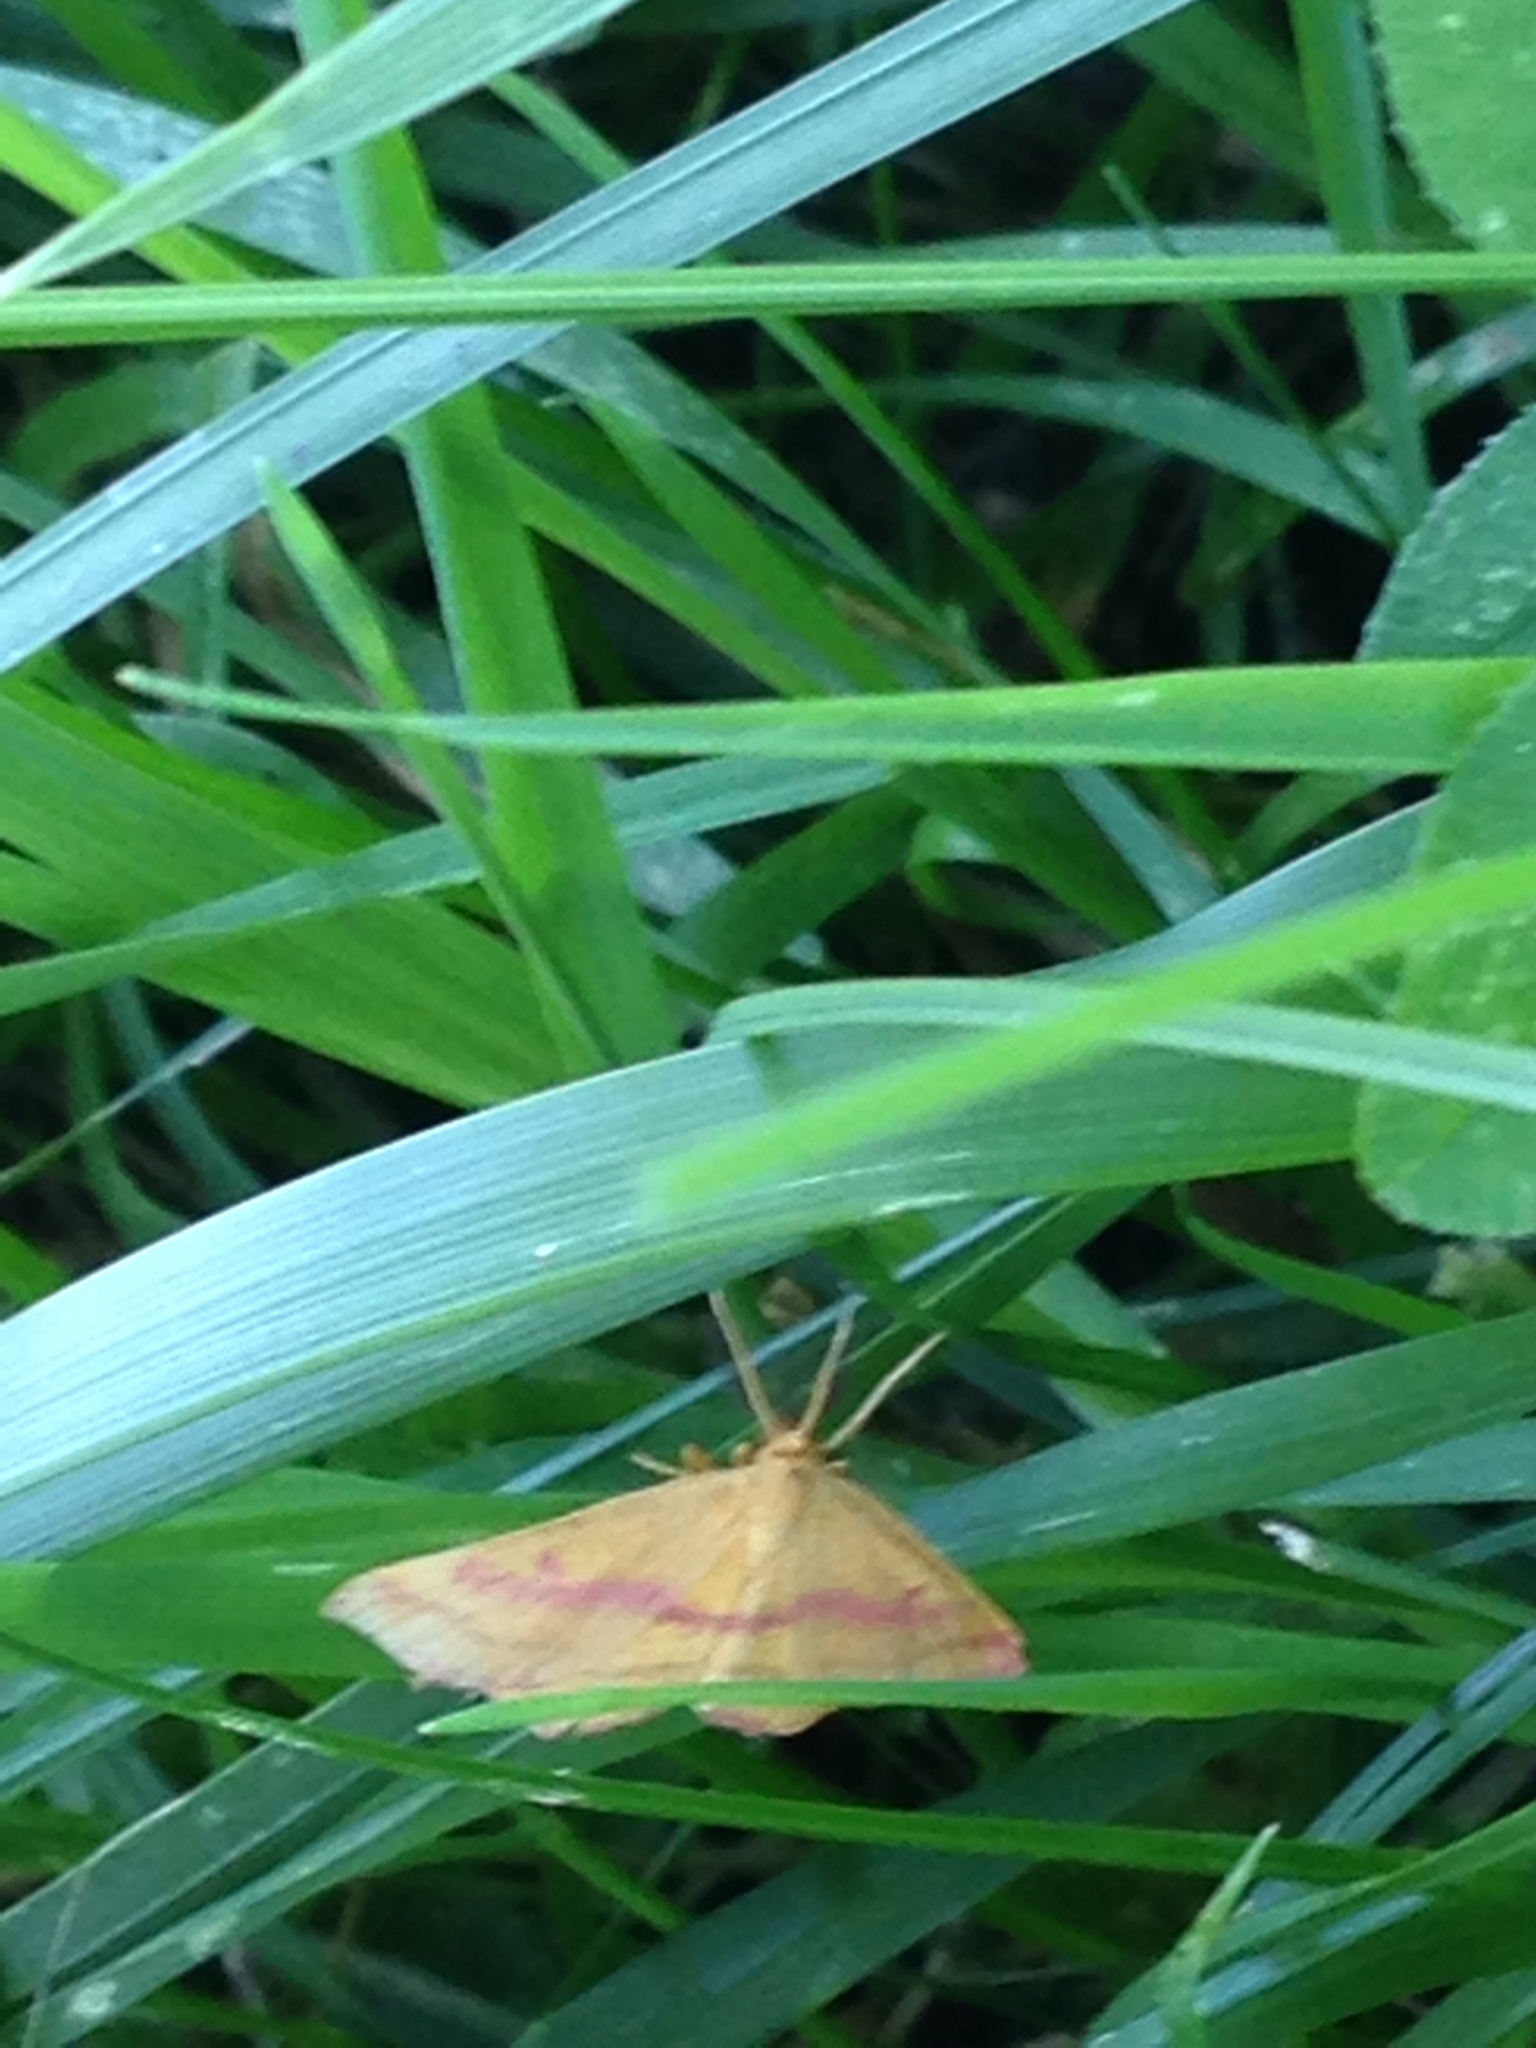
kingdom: Animalia
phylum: Arthropoda
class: Insecta
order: Lepidoptera
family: Geometridae
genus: Haematopis
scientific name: Haematopis grataria
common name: Chickweed geometer
